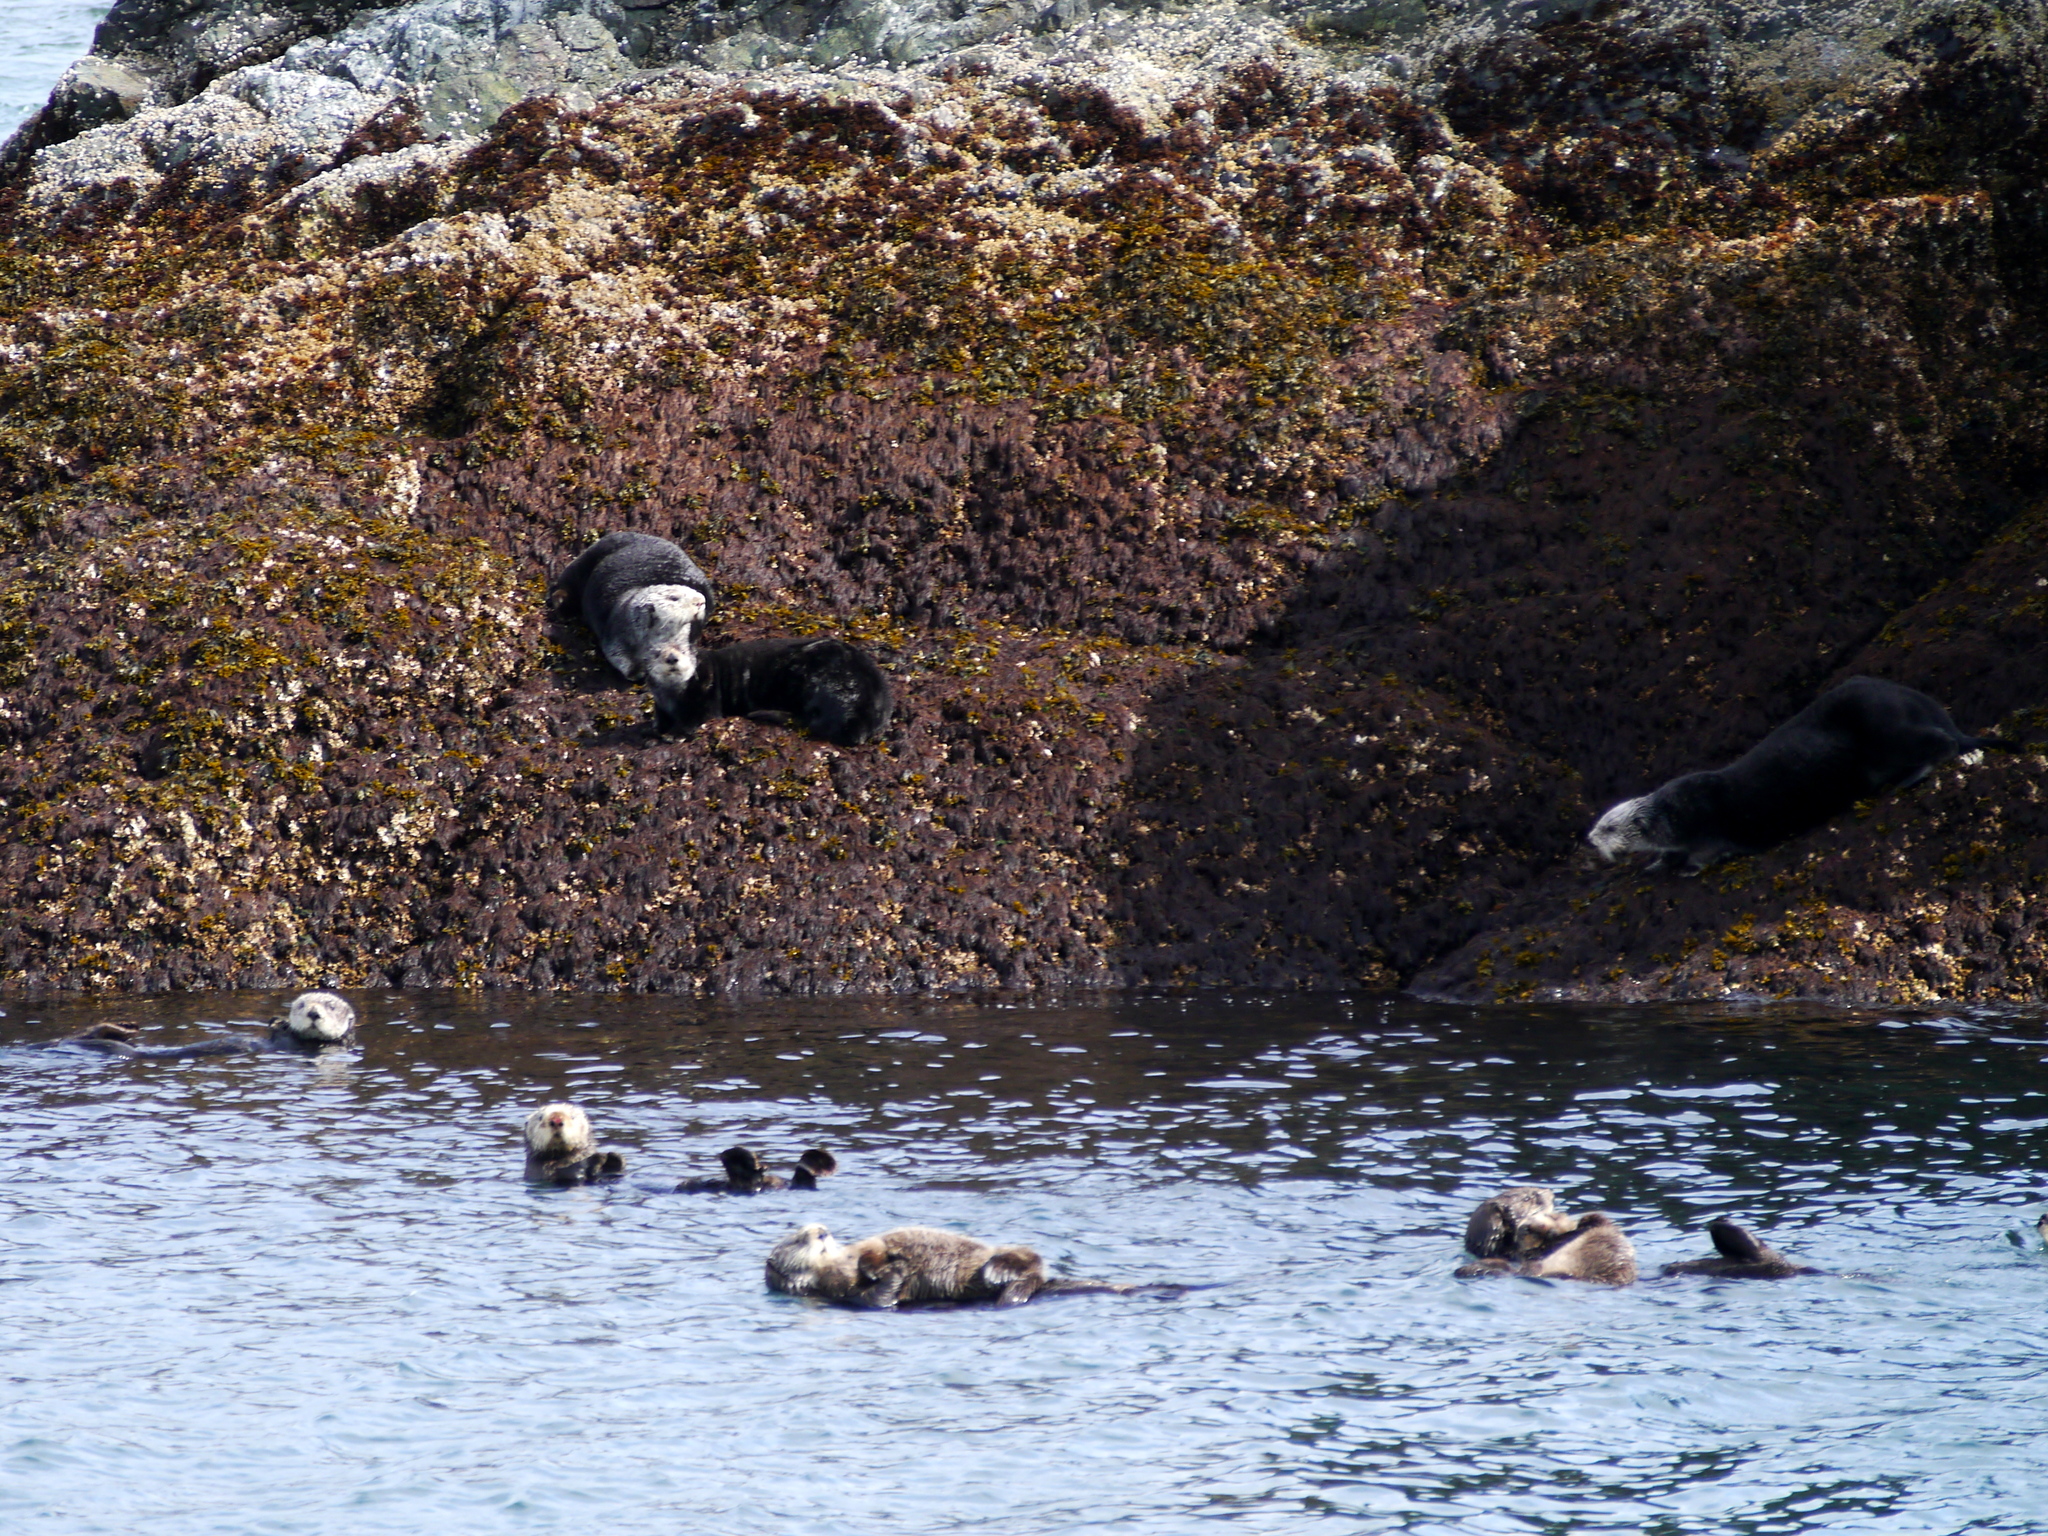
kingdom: Animalia
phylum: Chordata
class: Mammalia
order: Carnivora
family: Mustelidae
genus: Enhydra
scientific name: Enhydra lutris
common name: Sea otter
